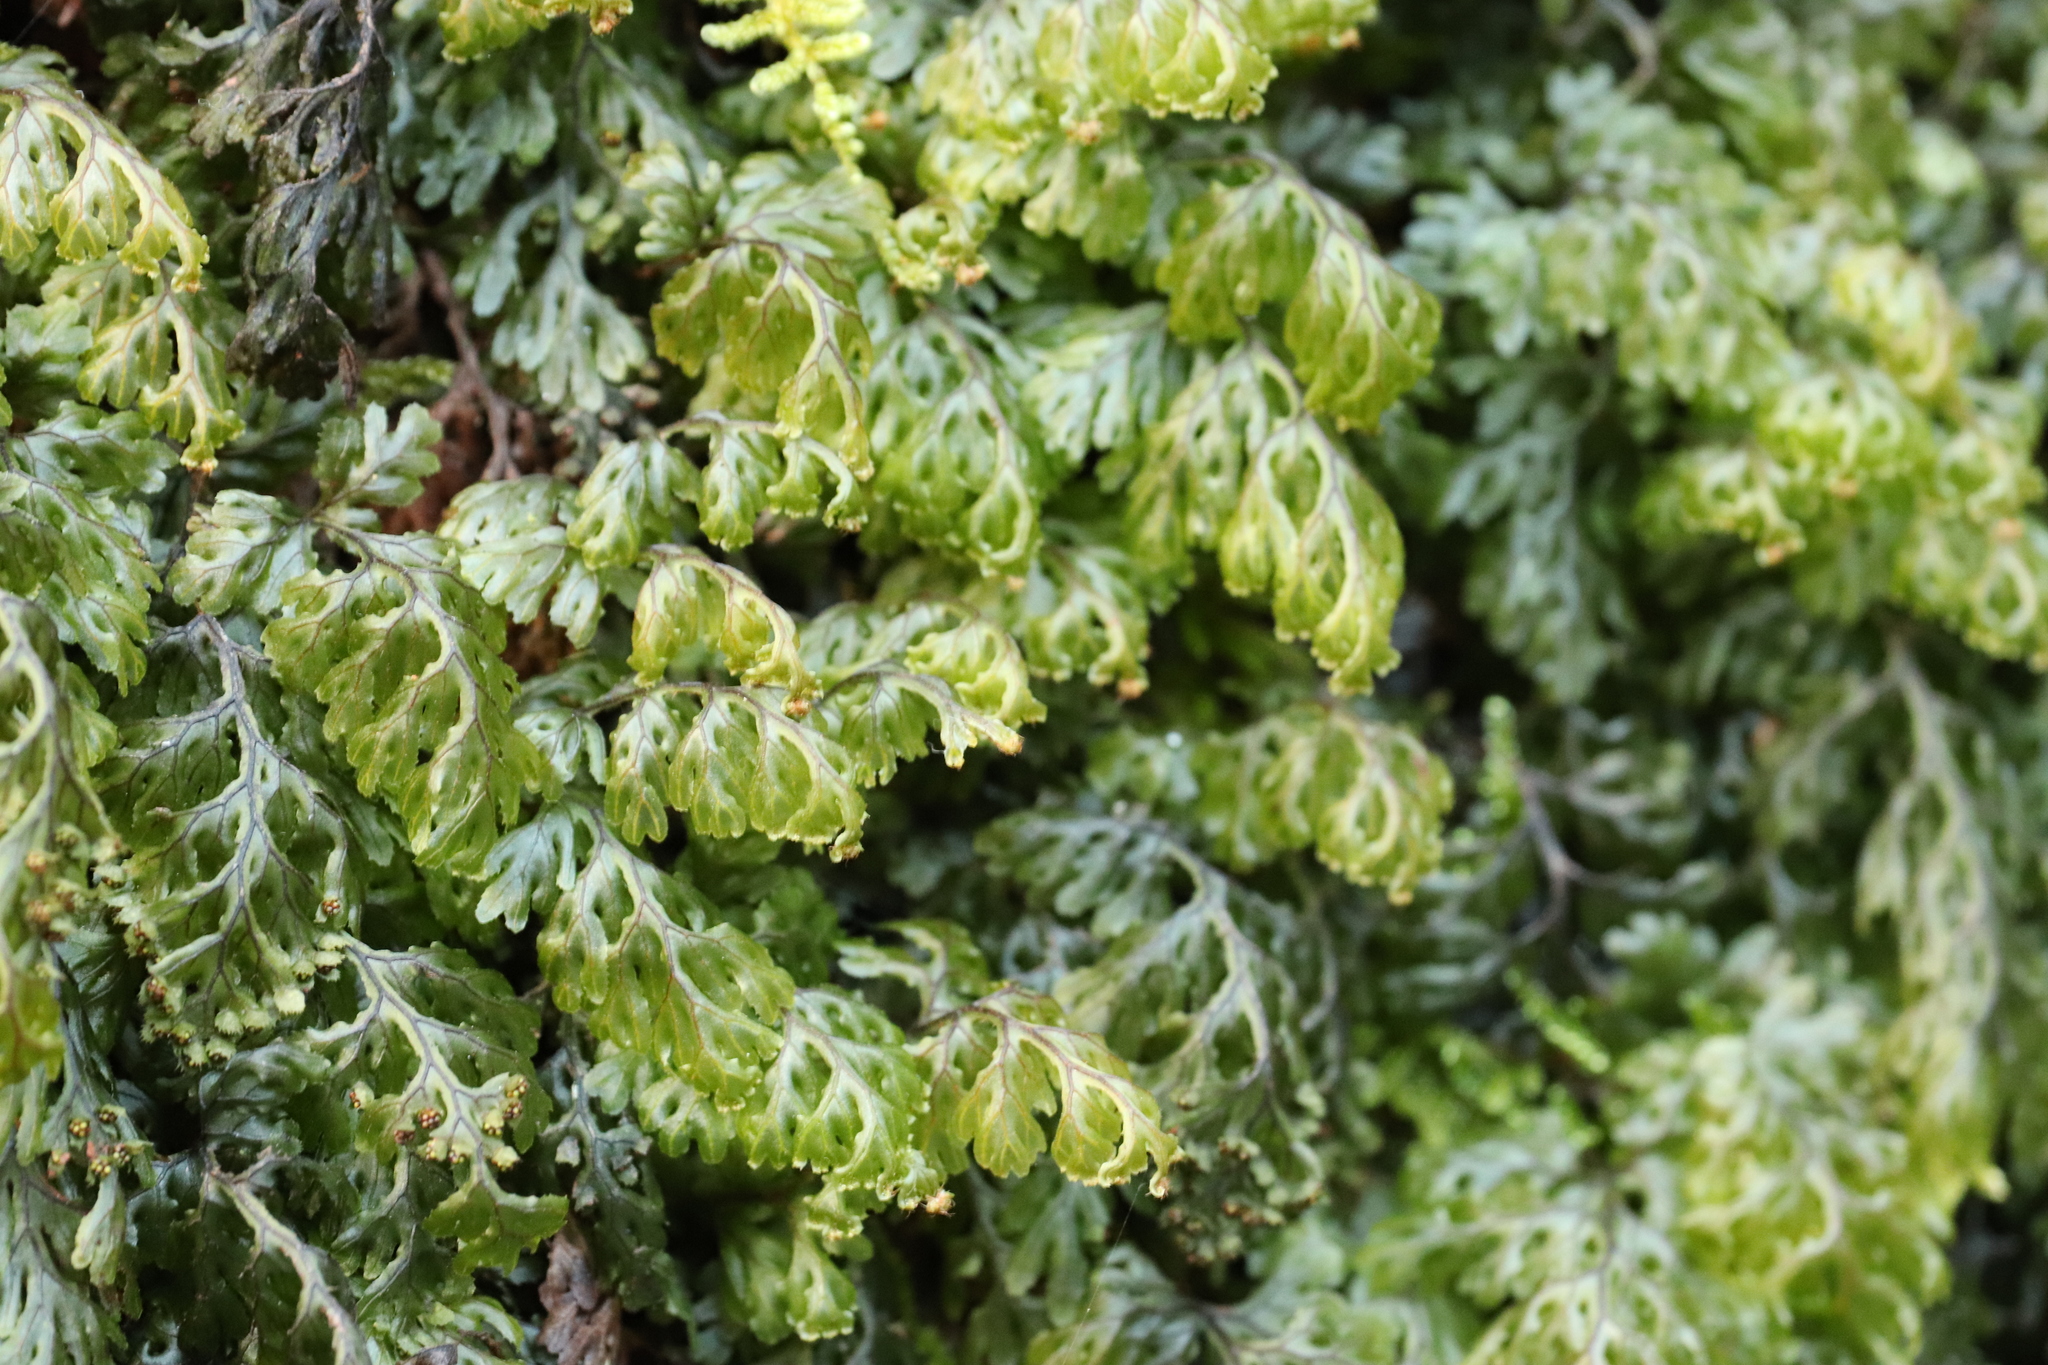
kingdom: Plantae
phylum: Tracheophyta
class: Polypodiopsida
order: Hymenophyllales
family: Hymenophyllaceae
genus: Hymenophyllum
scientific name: Hymenophyllum barbatum
